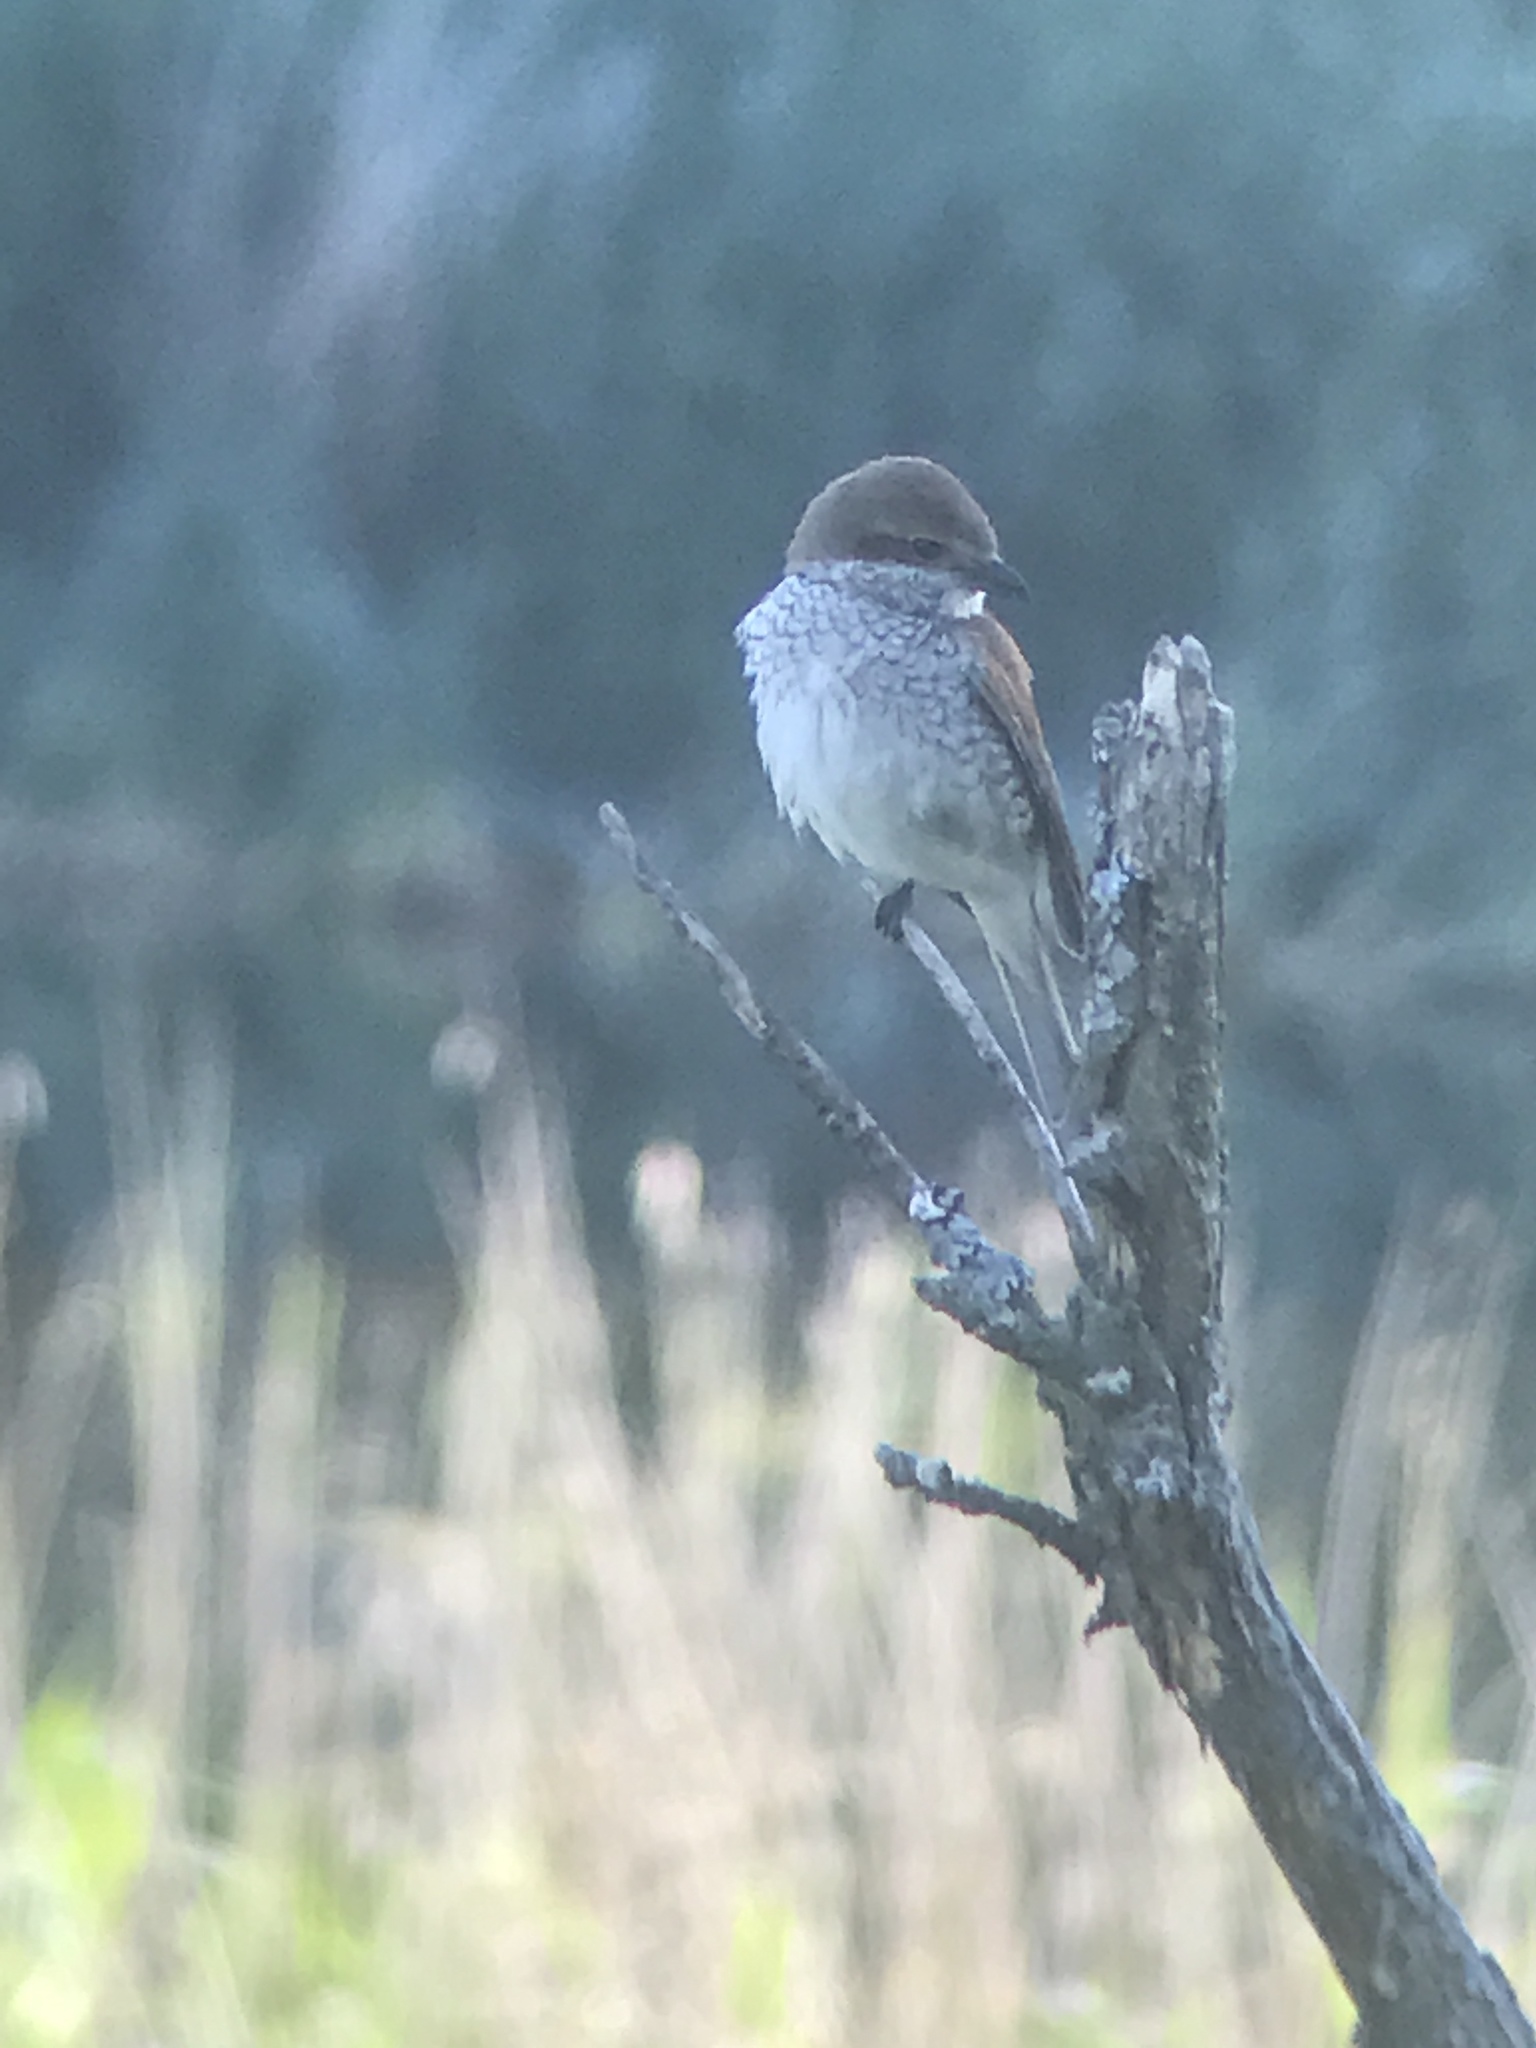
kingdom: Animalia
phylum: Chordata
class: Aves
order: Passeriformes
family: Laniidae
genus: Lanius
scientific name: Lanius collurio
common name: Red-backed shrike
